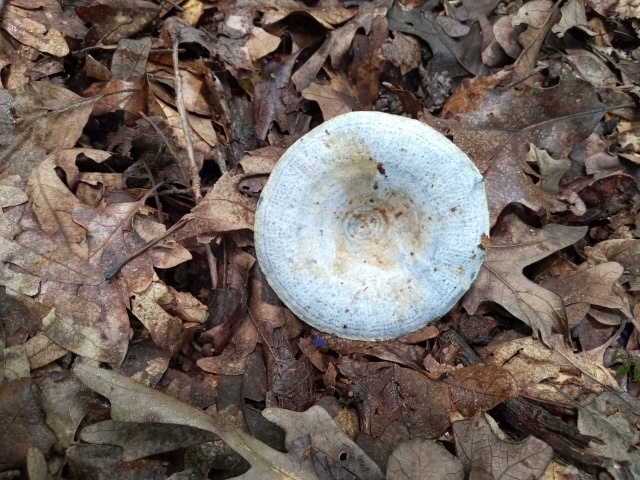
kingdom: Fungi
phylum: Basidiomycota
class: Agaricomycetes
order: Russulales
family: Russulaceae
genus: Lactarius
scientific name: Lactarius indigo
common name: Indigo milk cap
